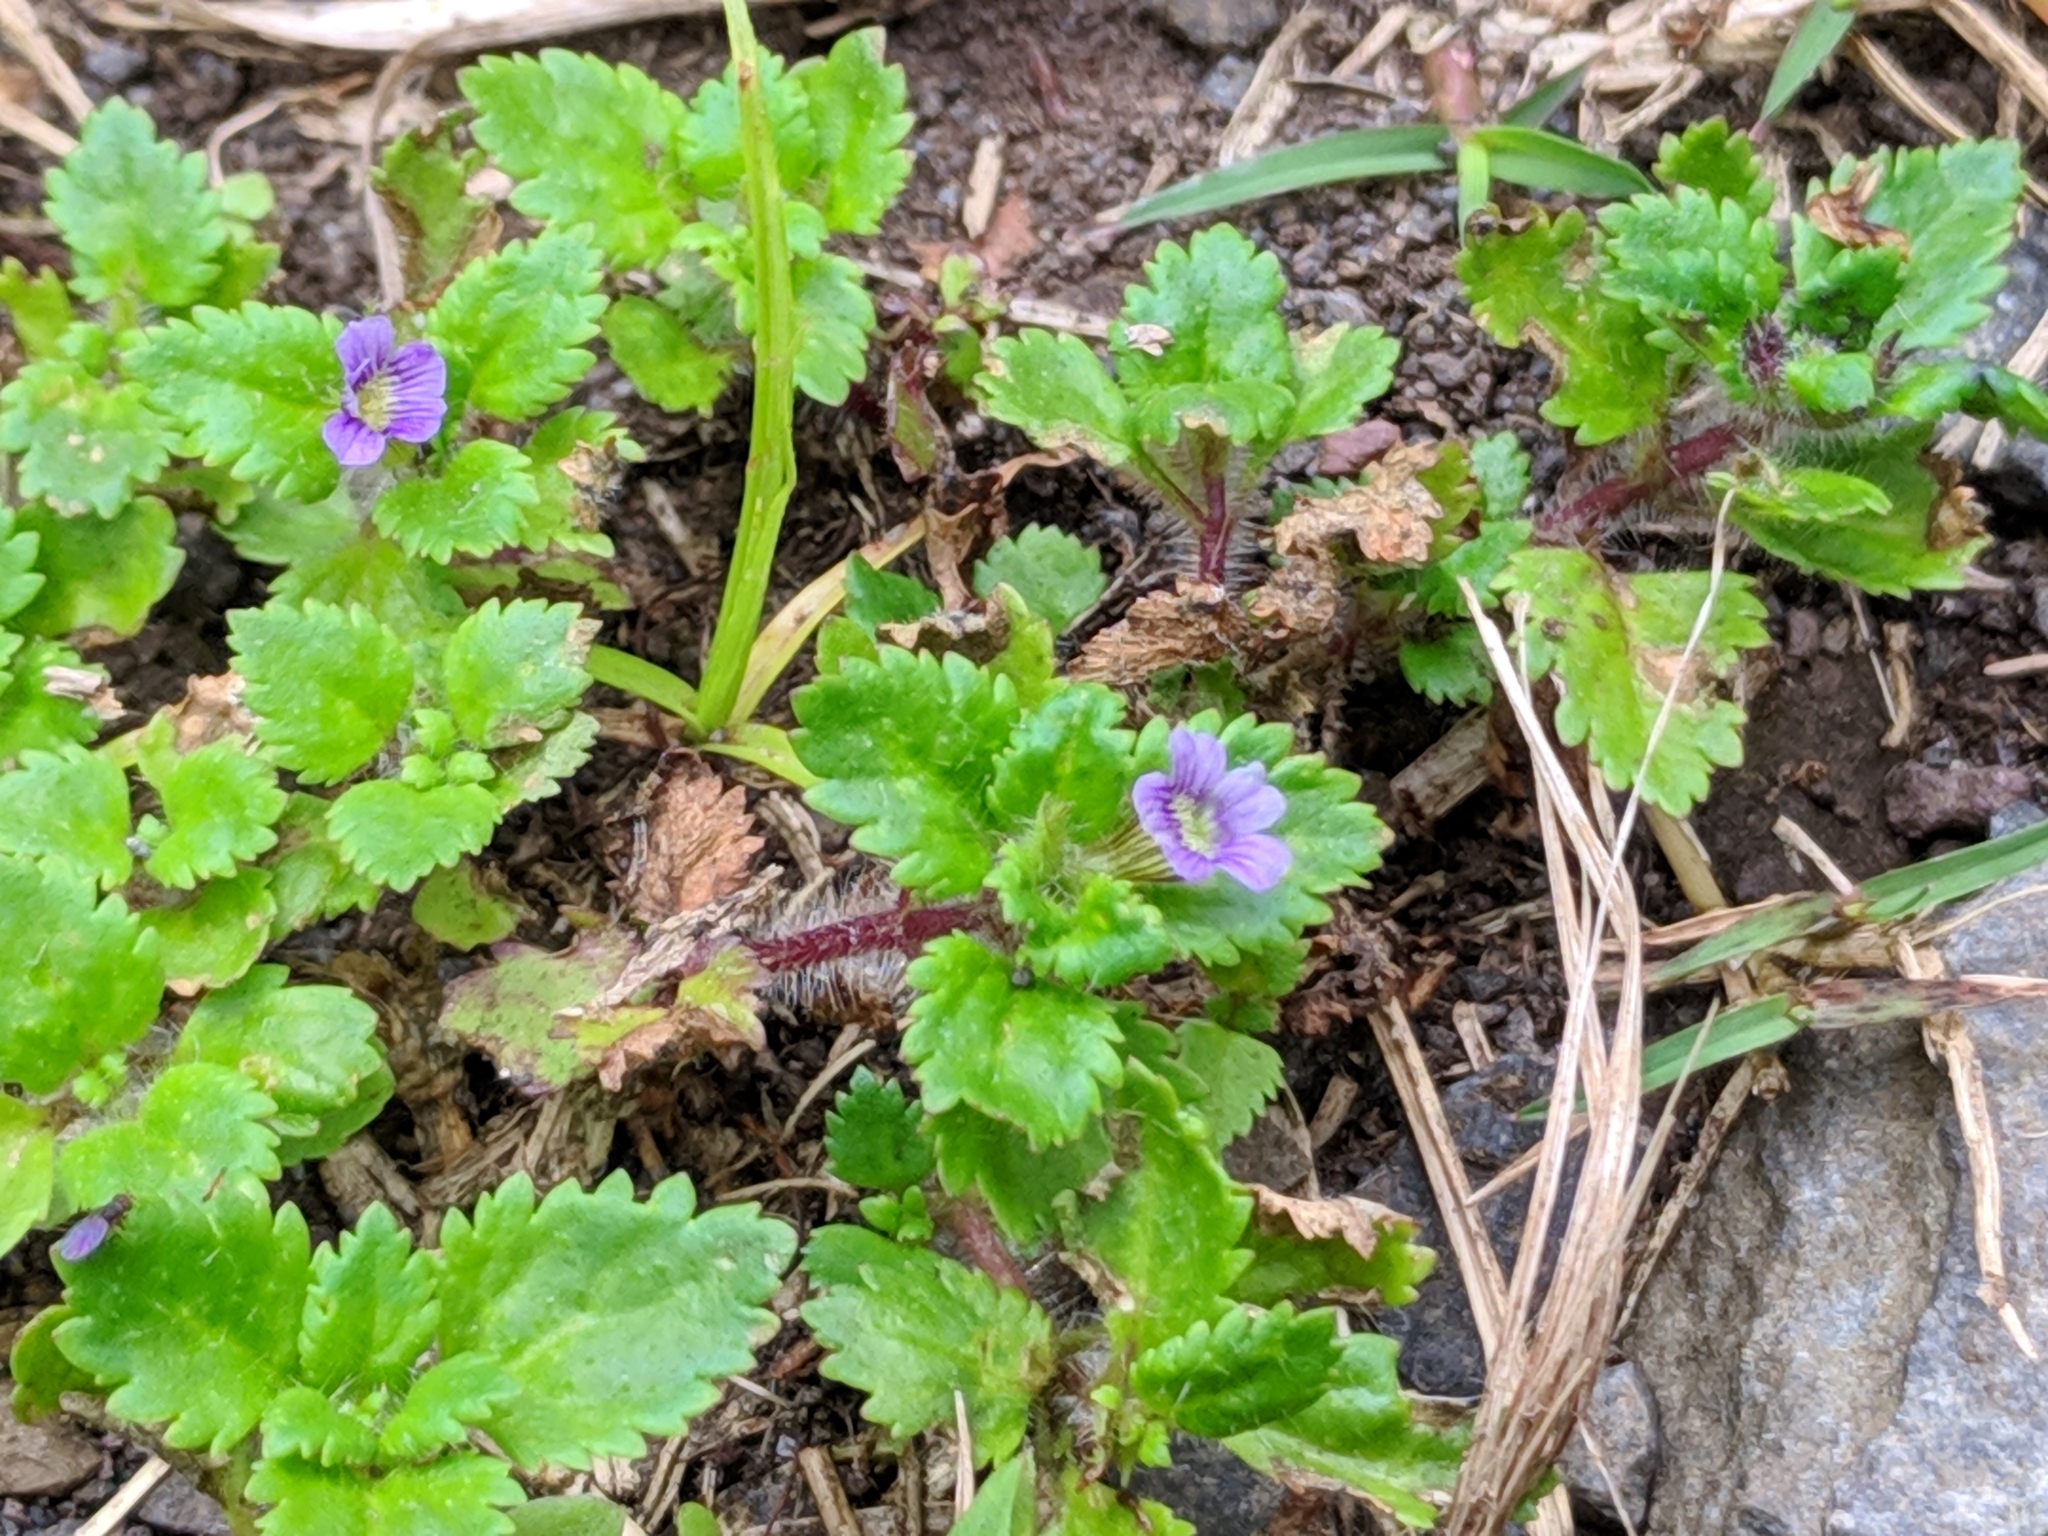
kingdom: Plantae
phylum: Tracheophyta
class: Magnoliopsida
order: Lamiales
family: Plantaginaceae
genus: Stemodia
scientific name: Stemodia verticillata
